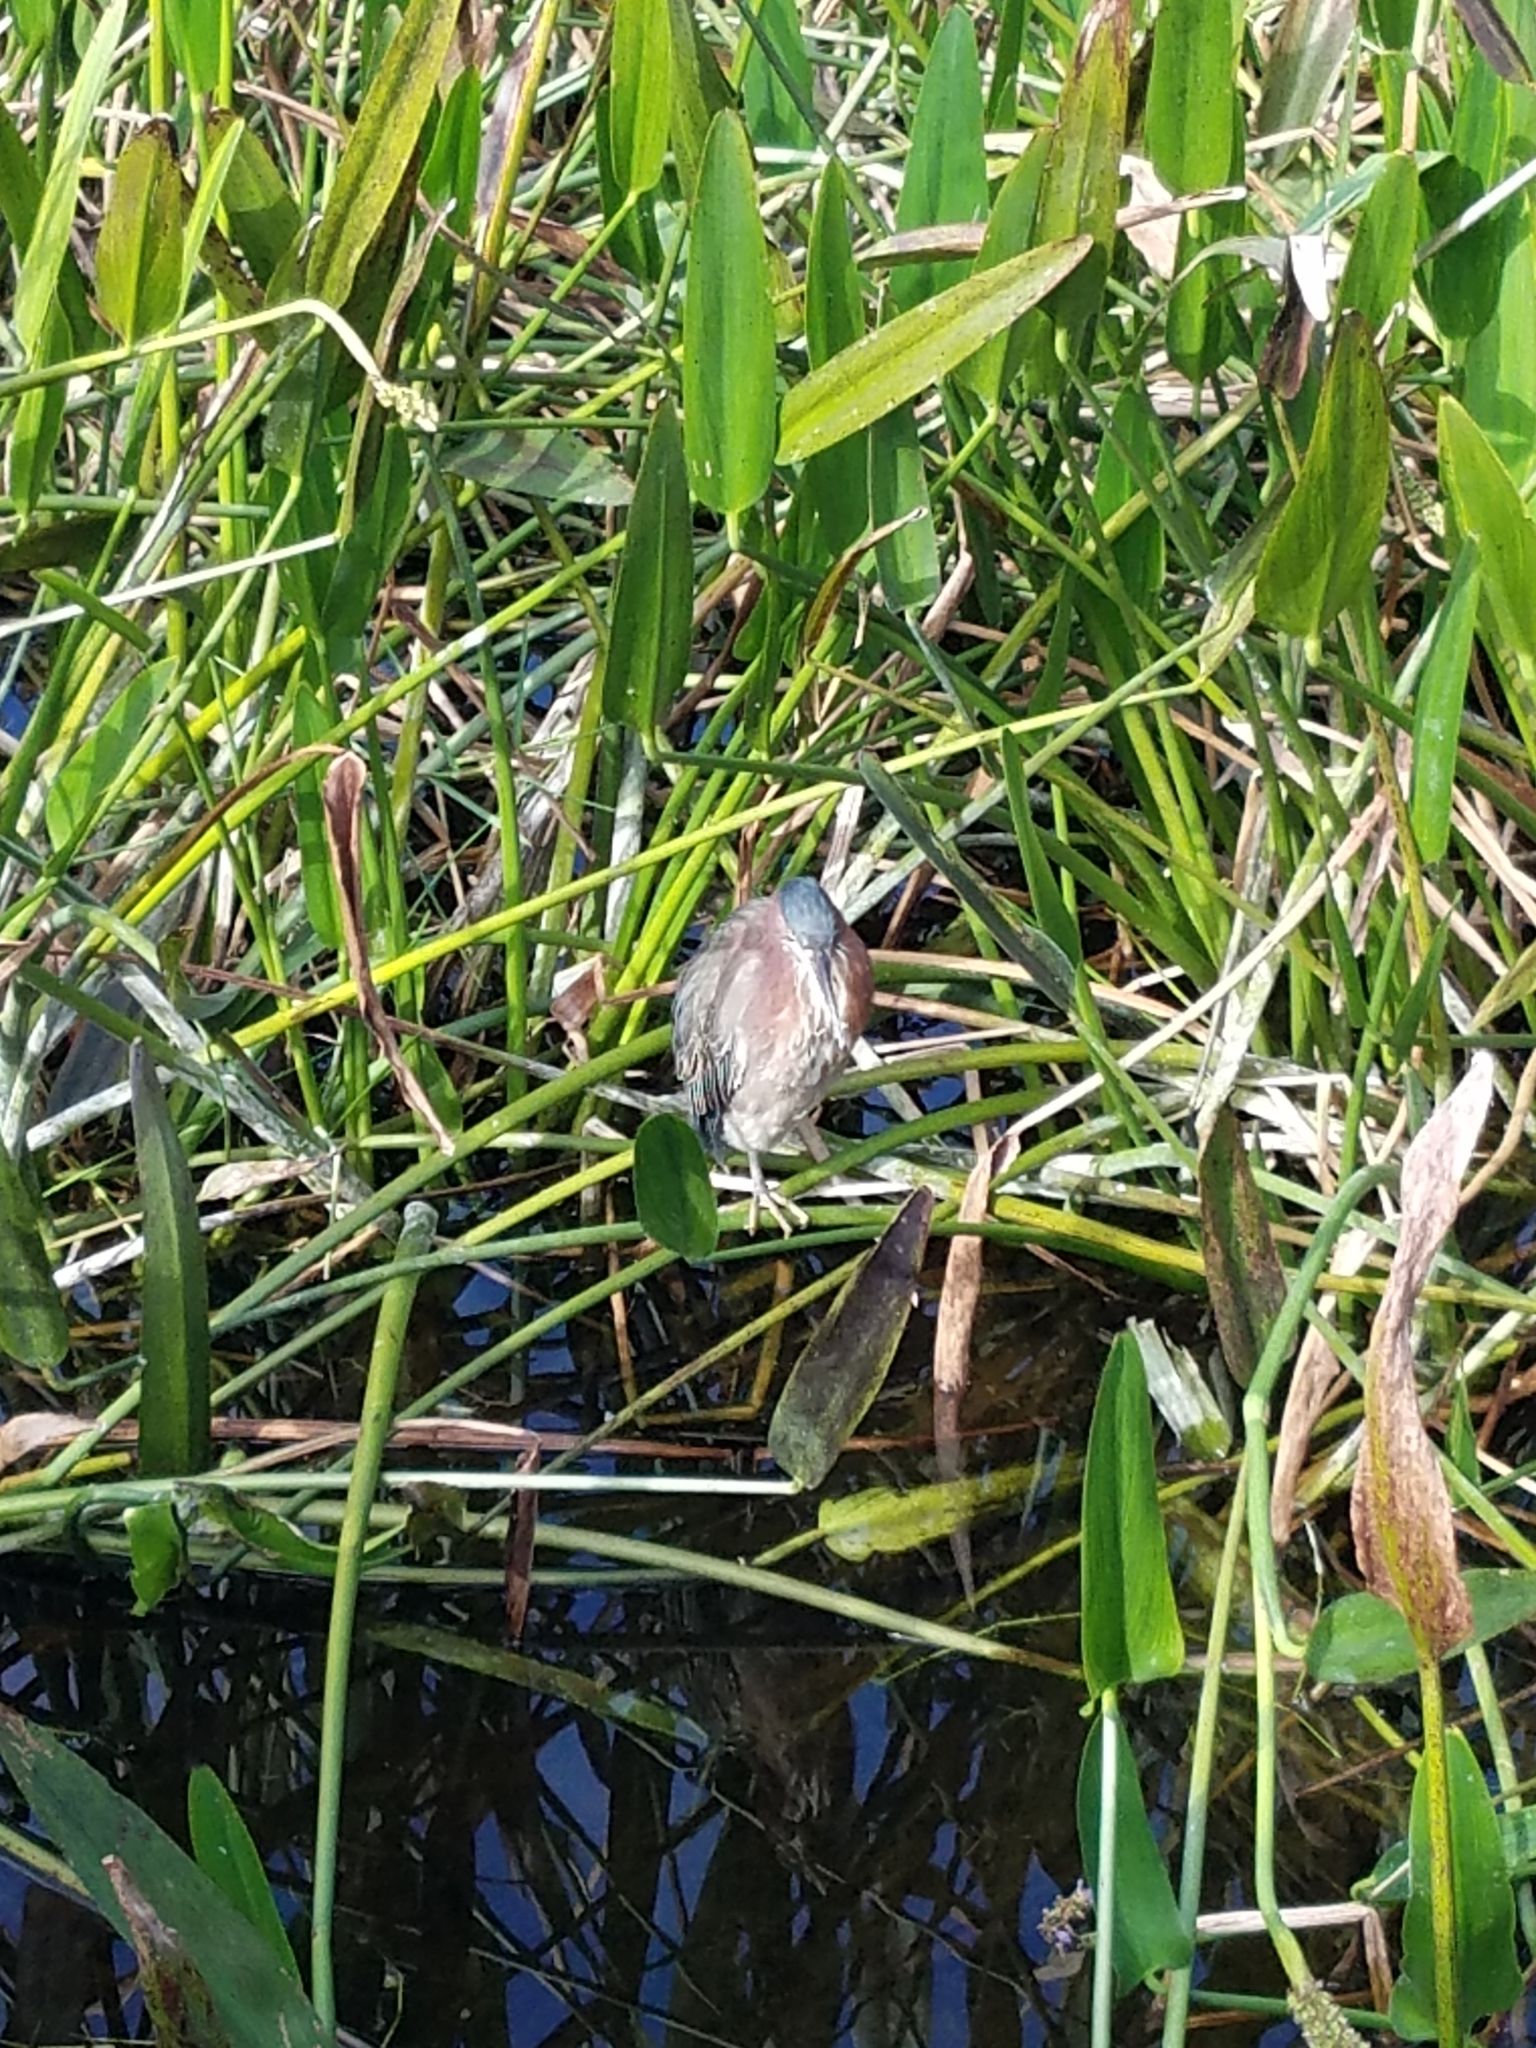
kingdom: Animalia
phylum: Chordata
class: Aves
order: Pelecaniformes
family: Ardeidae
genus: Butorides
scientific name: Butorides virescens
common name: Green heron
